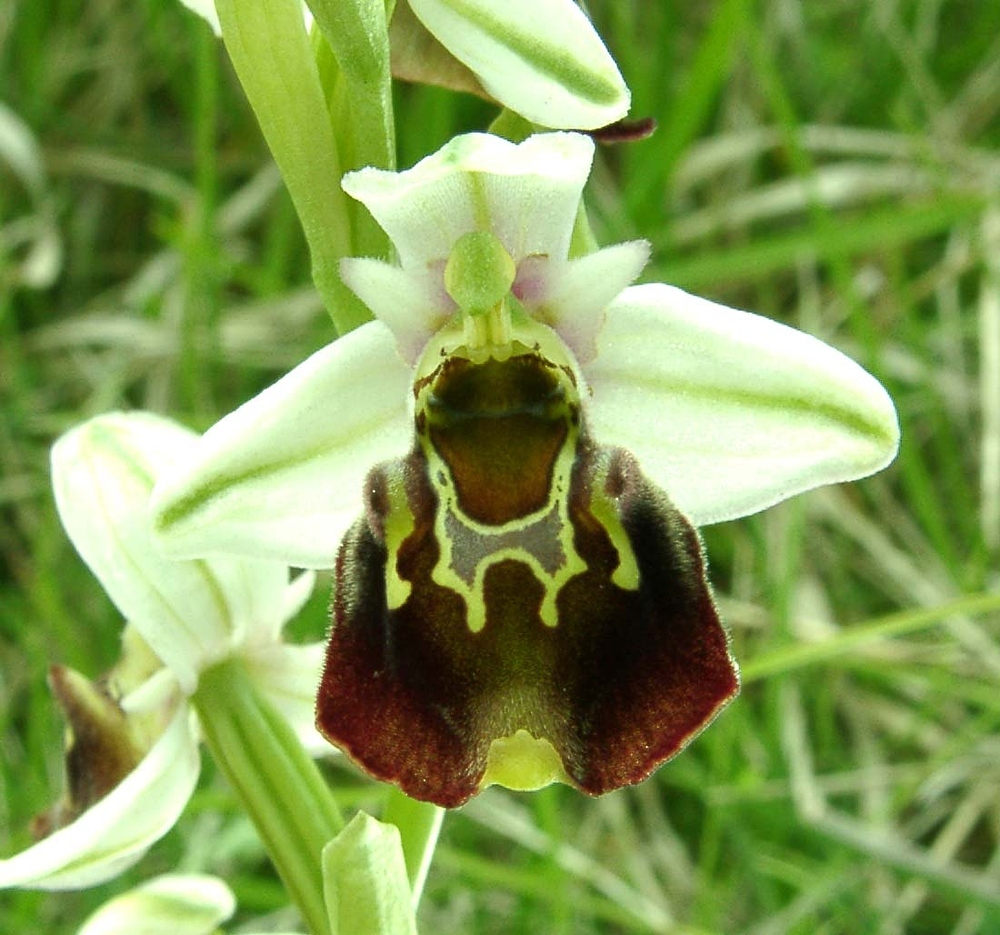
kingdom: Plantae
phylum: Tracheophyta
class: Liliopsida
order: Asparagales
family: Orchidaceae
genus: Ophrys
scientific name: Ophrys holosericea
